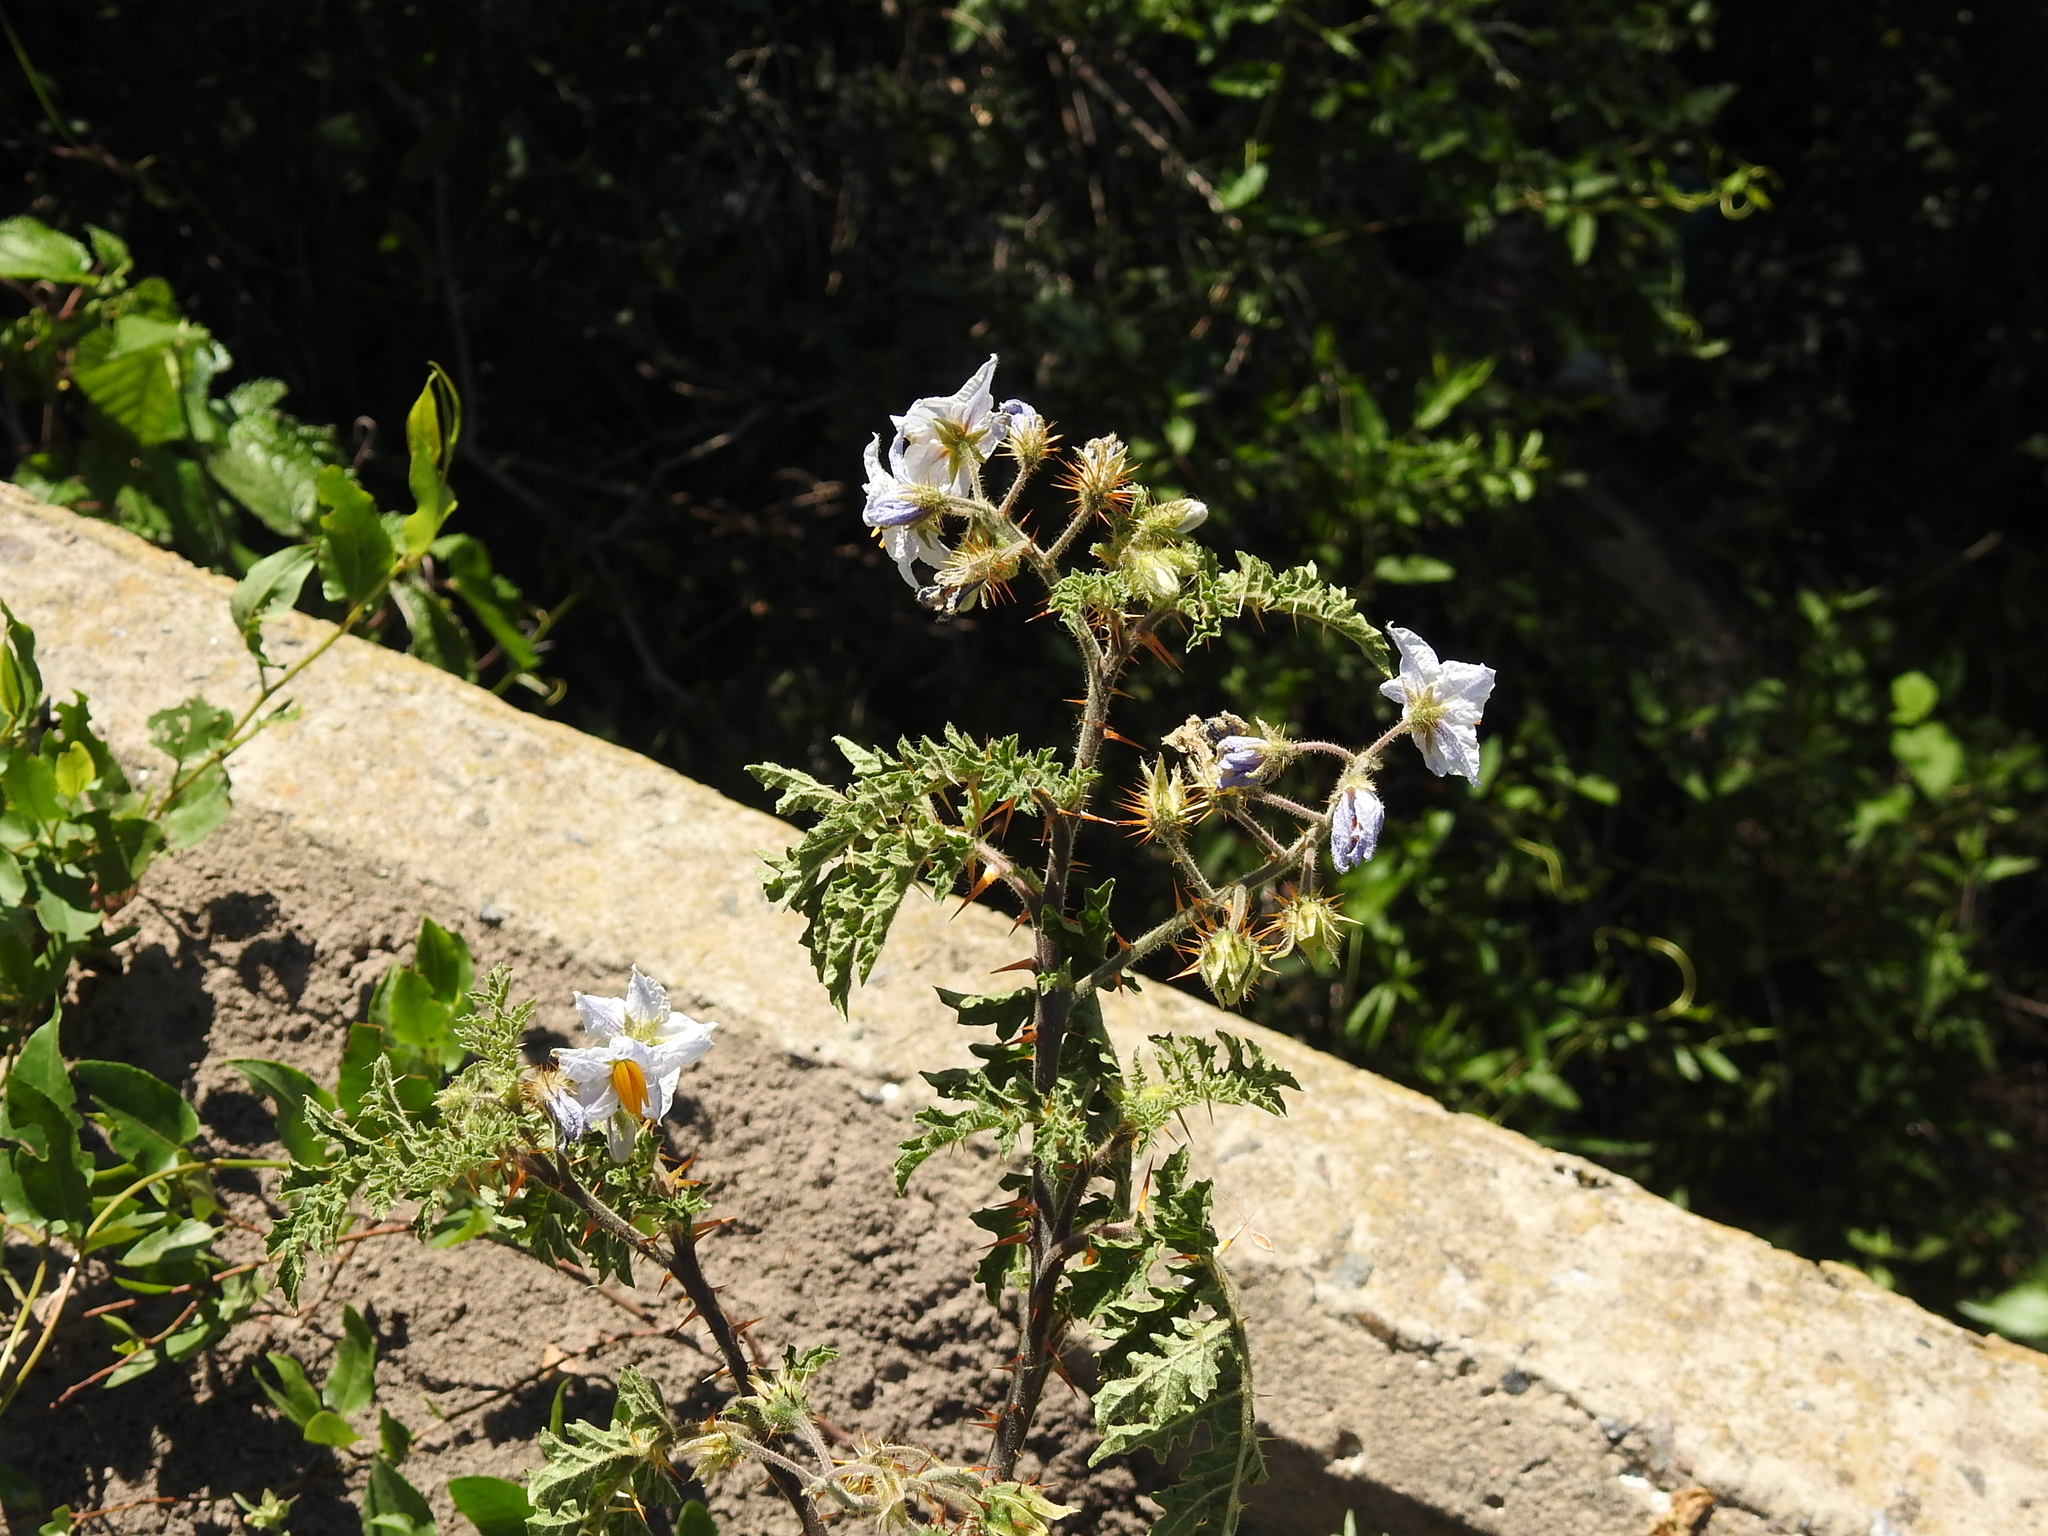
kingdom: Plantae
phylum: Tracheophyta
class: Magnoliopsida
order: Solanales
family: Solanaceae
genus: Solanum
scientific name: Solanum sisymbriifolium
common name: Red buffalo-bur
